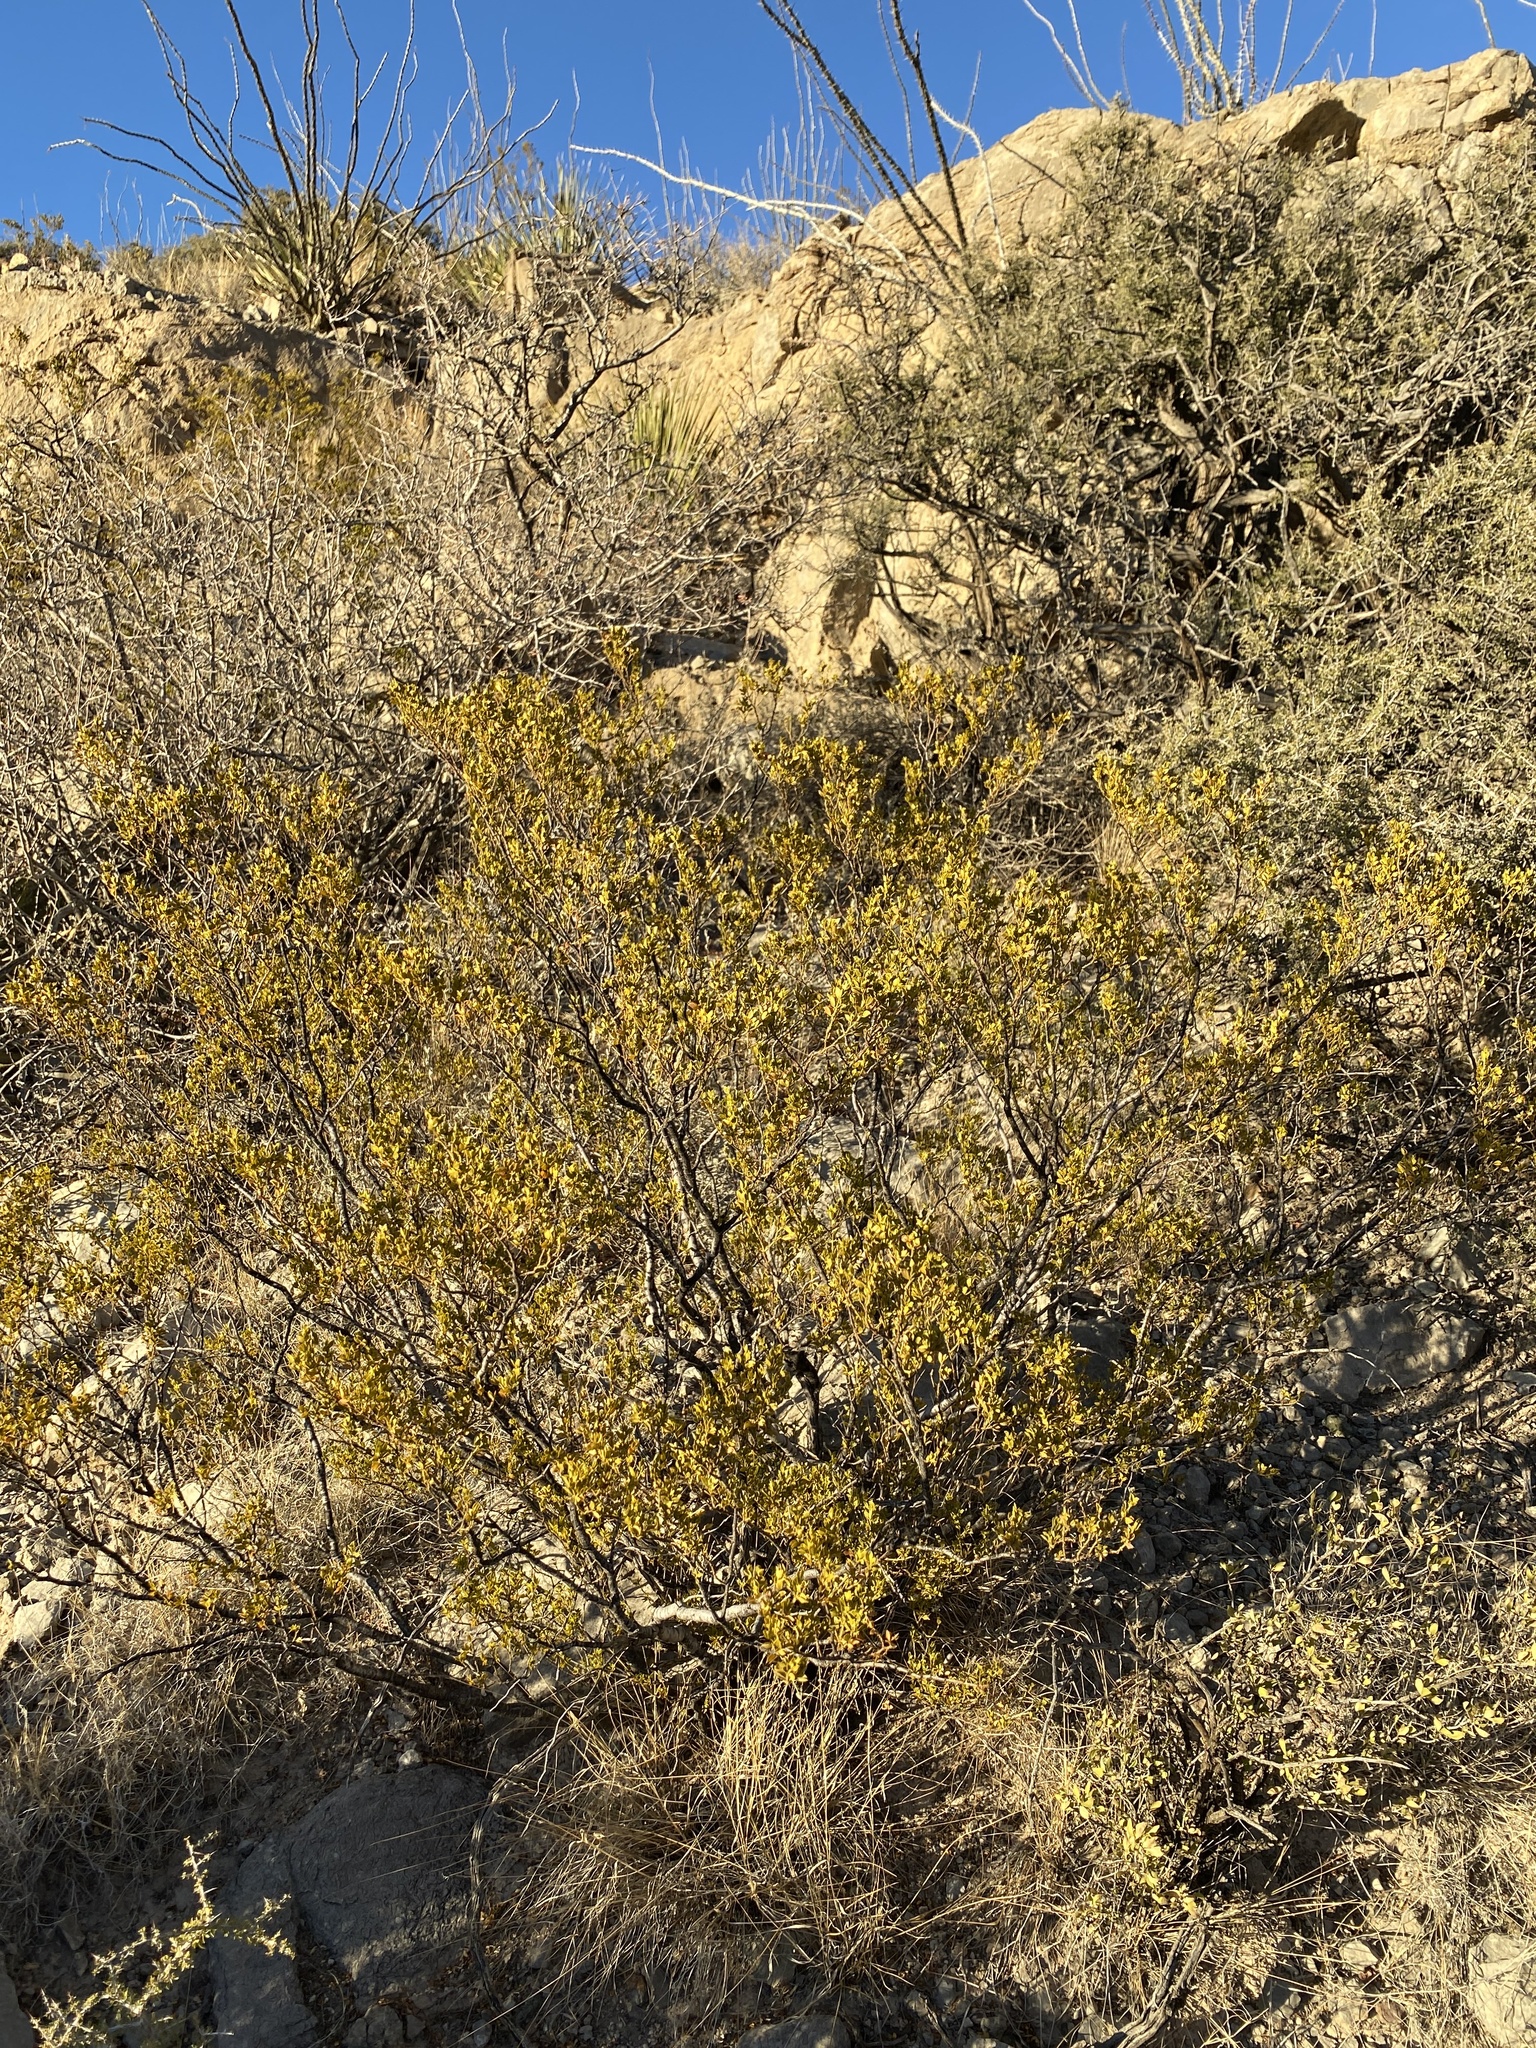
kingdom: Plantae
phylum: Tracheophyta
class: Magnoliopsida
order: Zygophyllales
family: Zygophyllaceae
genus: Larrea
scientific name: Larrea tridentata
